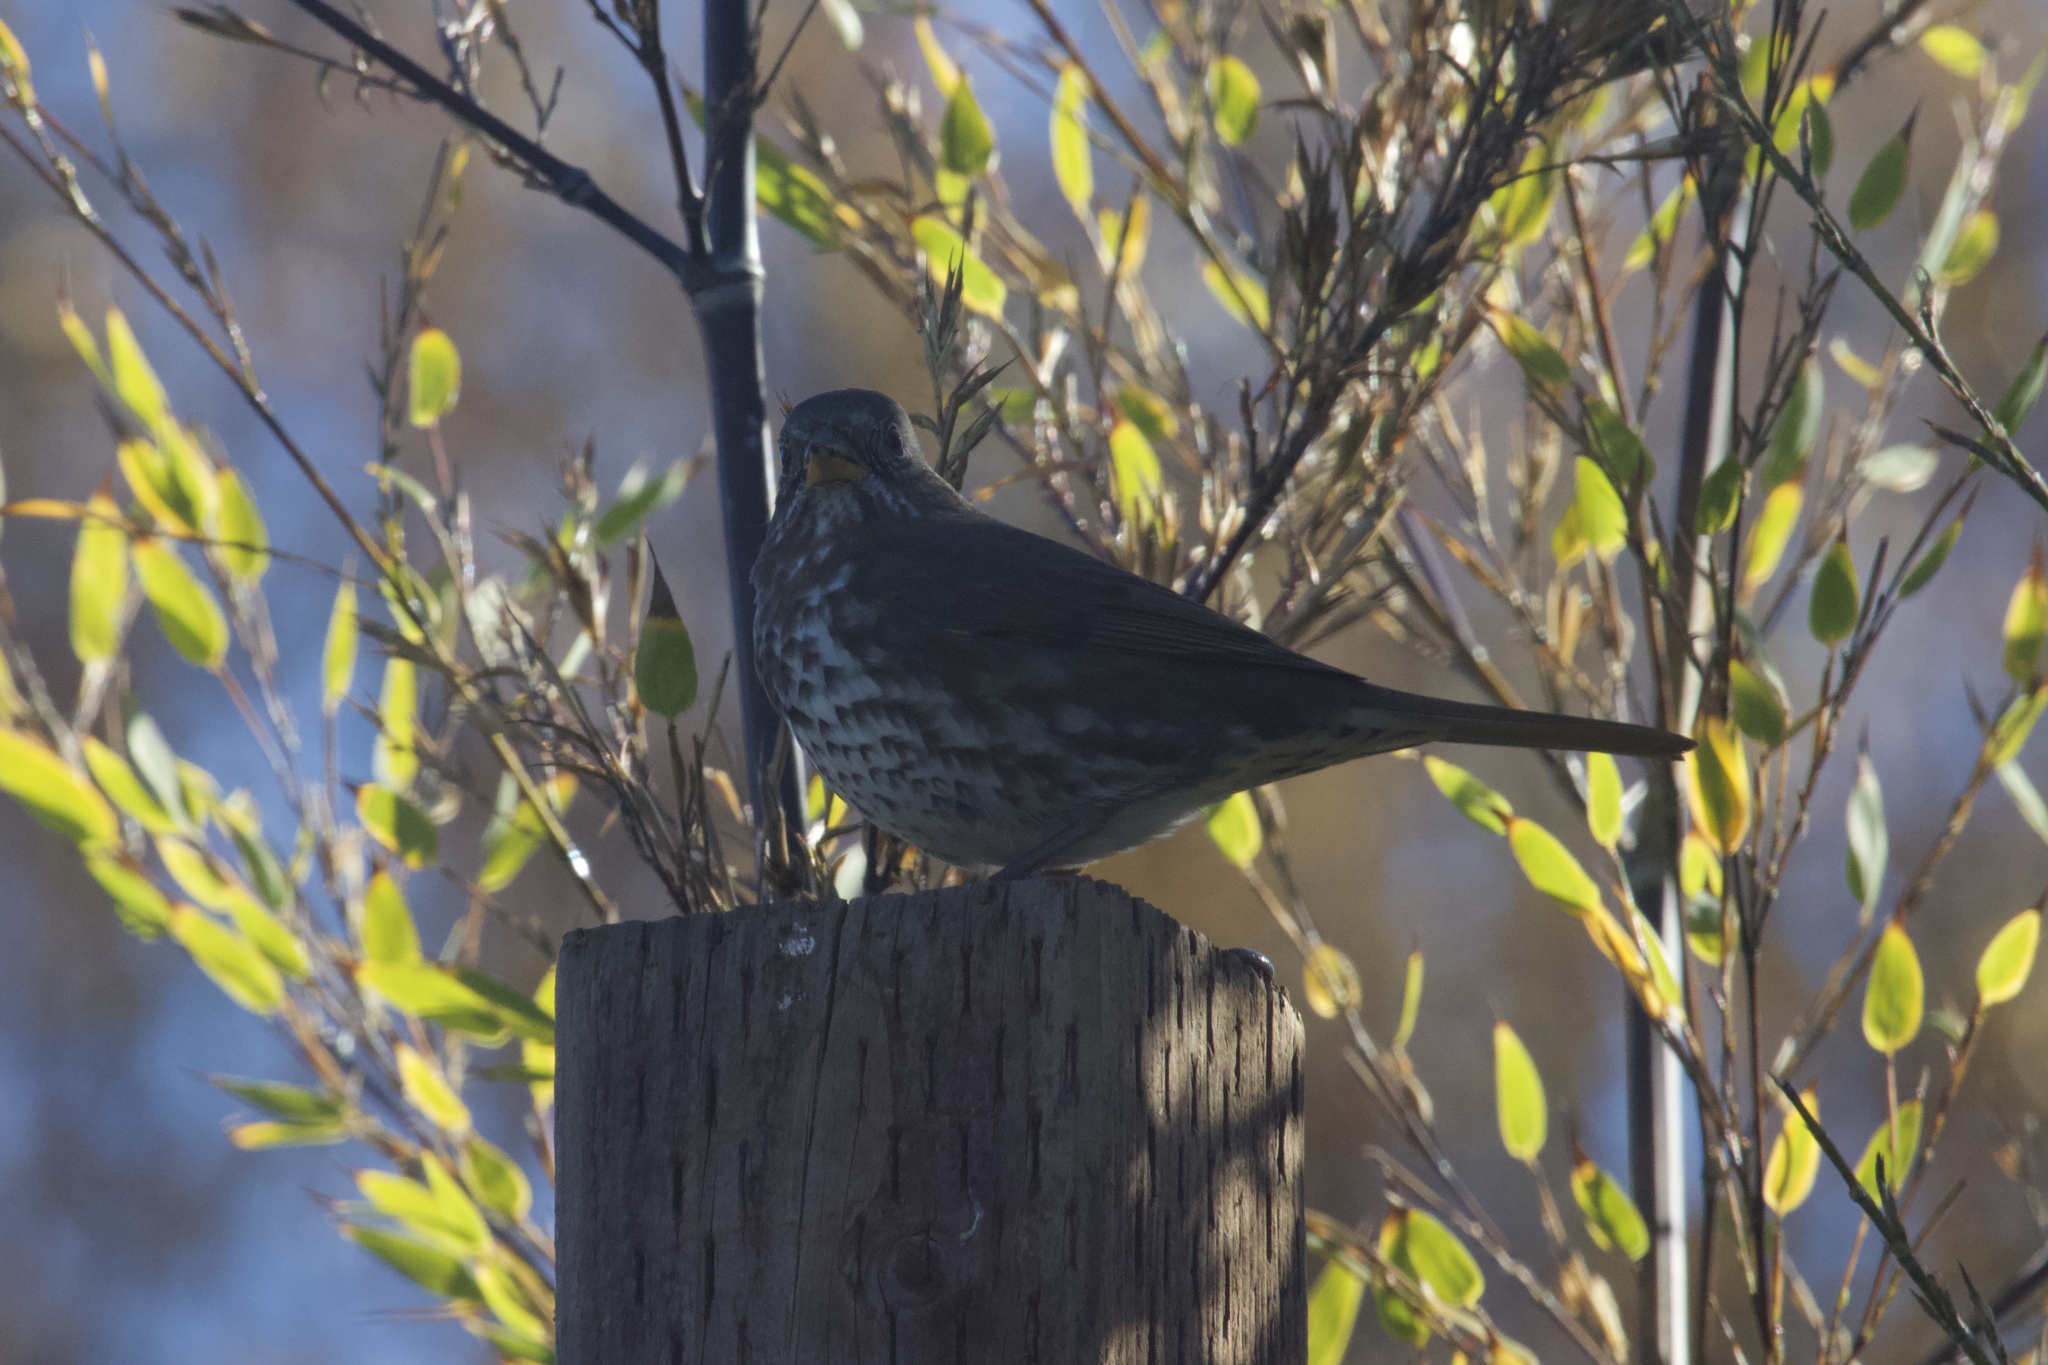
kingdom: Animalia
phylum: Chordata
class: Aves
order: Passeriformes
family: Passerellidae
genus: Passerella
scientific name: Passerella iliaca
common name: Fox sparrow
